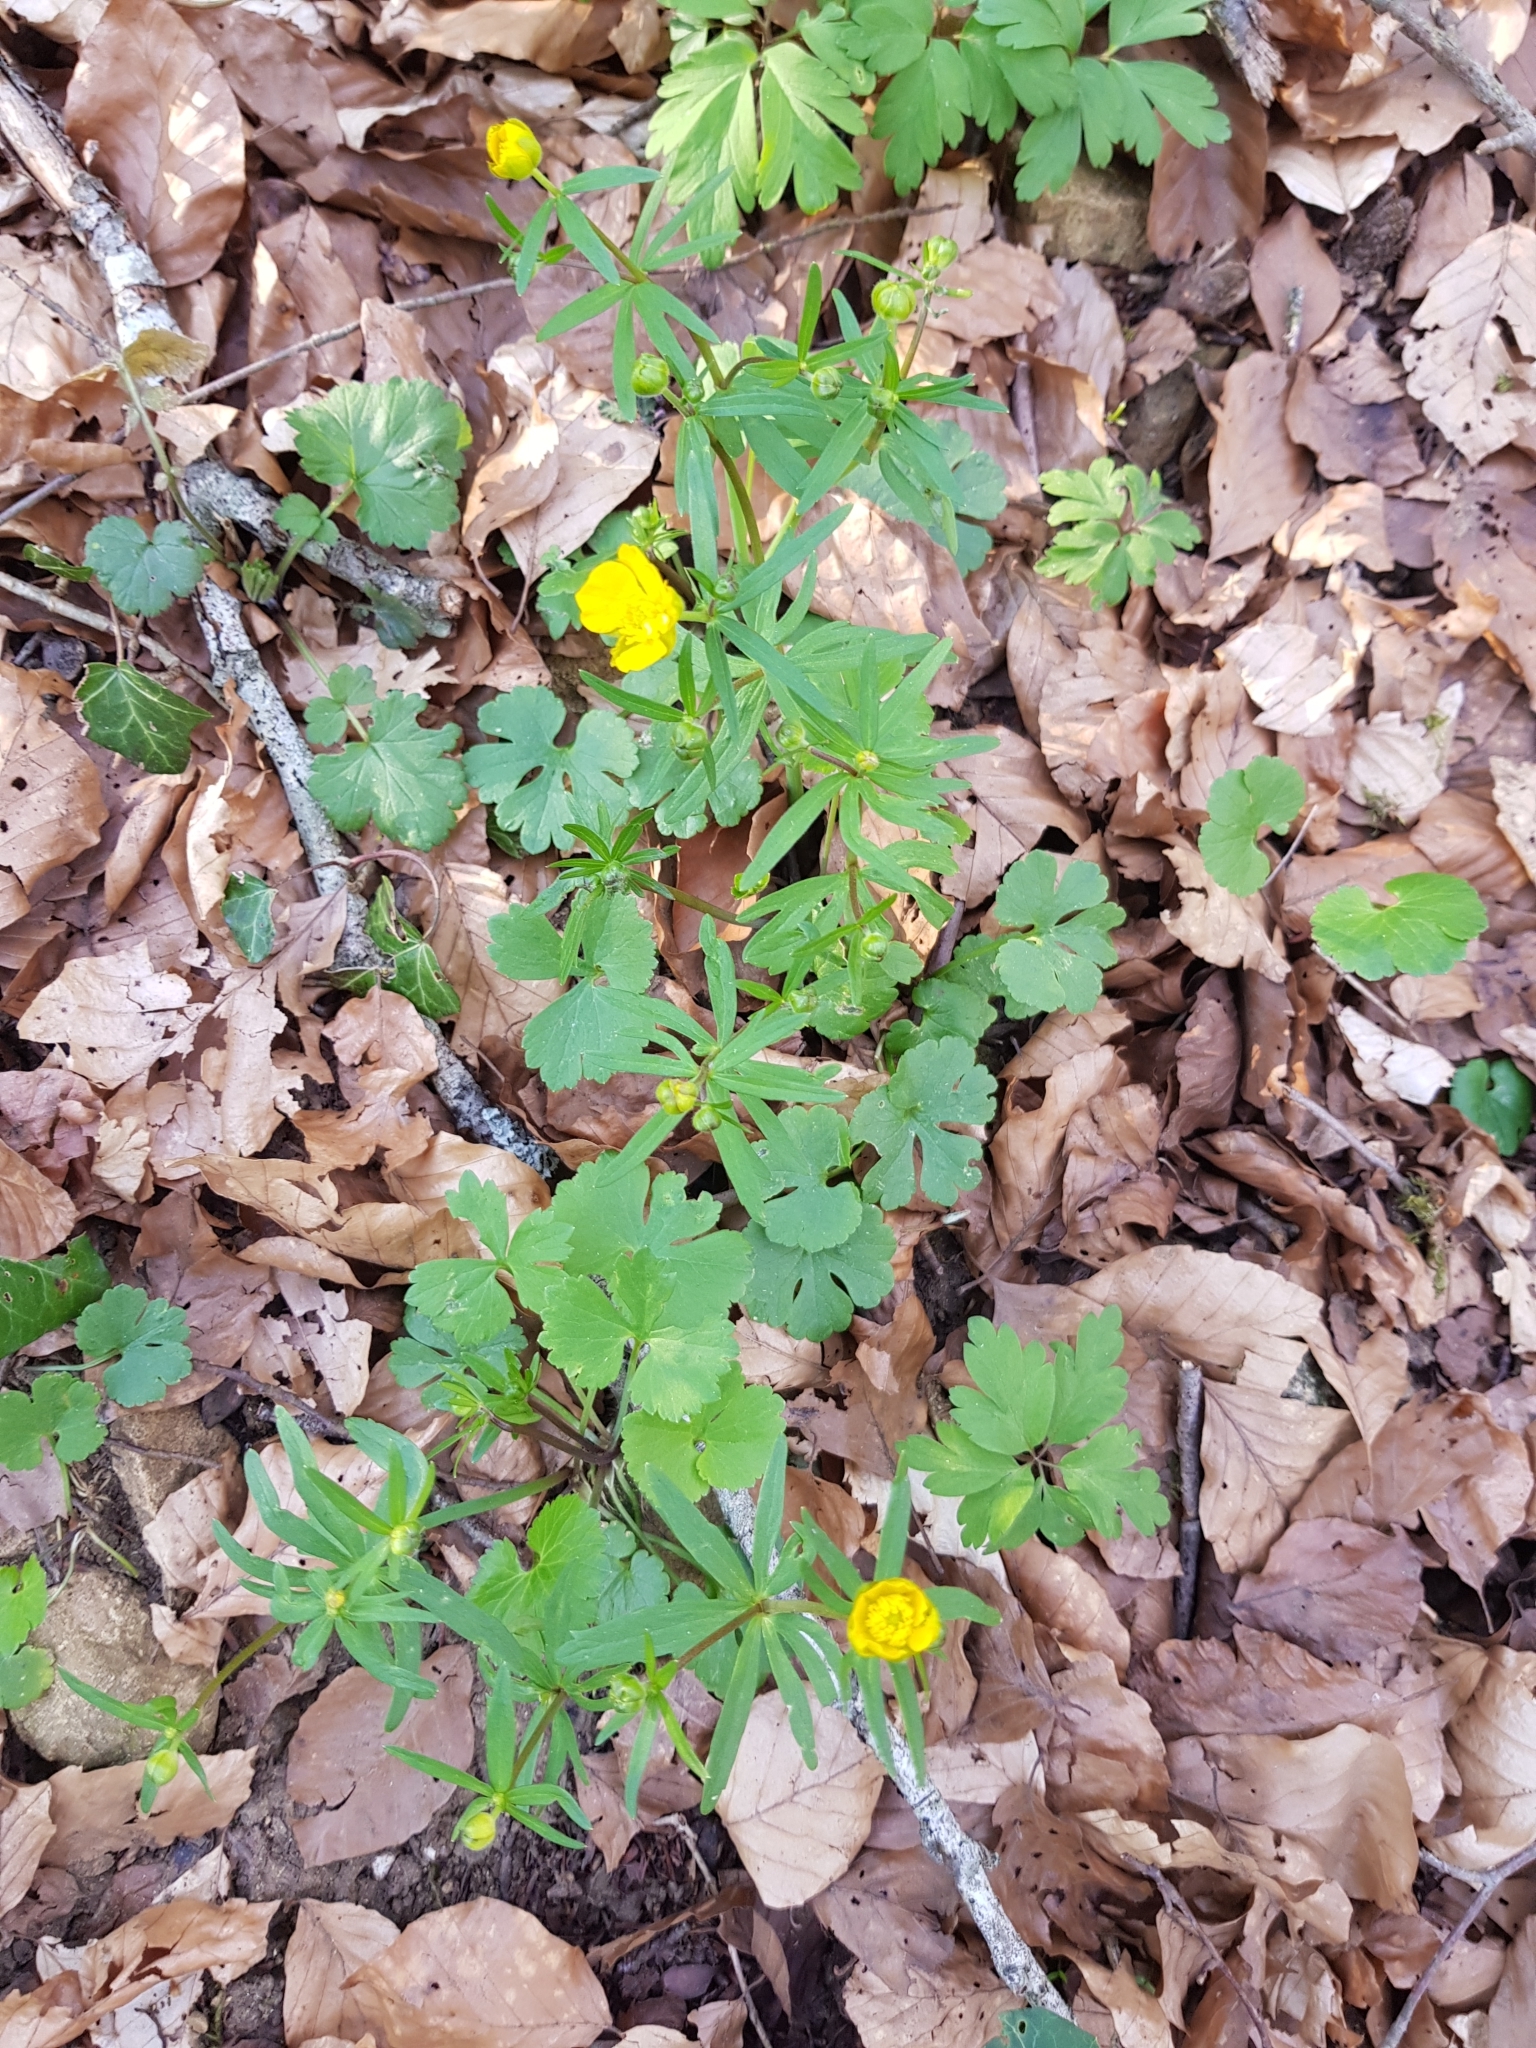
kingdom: Plantae
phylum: Tracheophyta
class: Magnoliopsida
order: Ranunculales
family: Ranunculaceae
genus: Ranunculus
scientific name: Ranunculus auricomus
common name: Goldilocks buttercup
